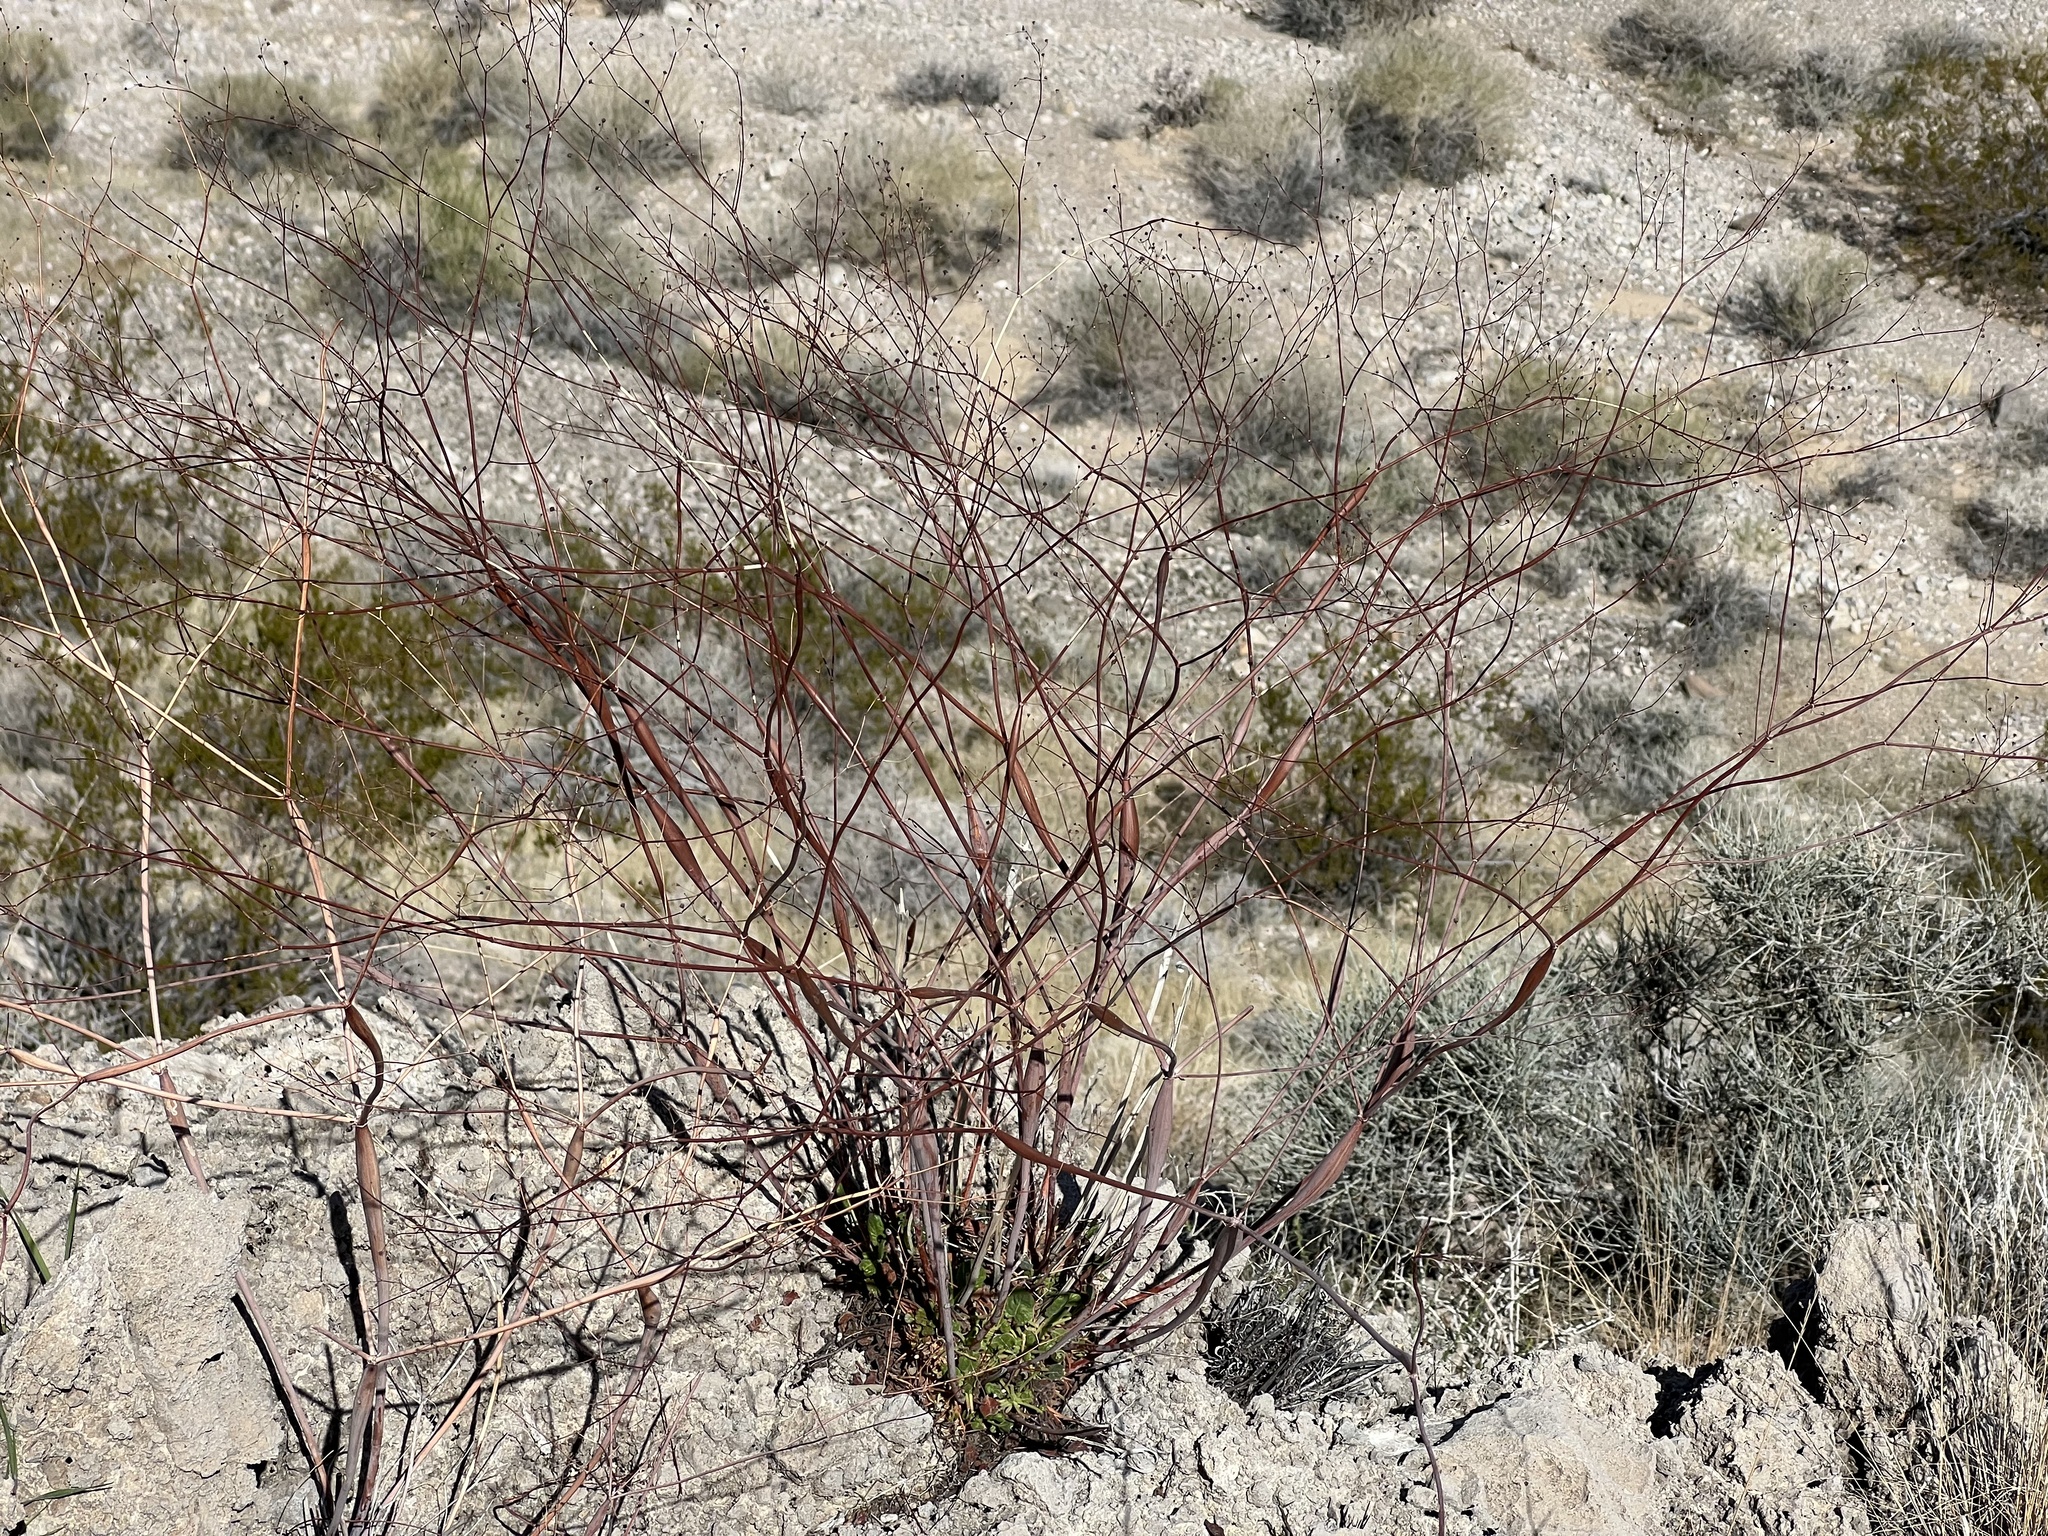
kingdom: Plantae
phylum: Tracheophyta
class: Magnoliopsida
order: Caryophyllales
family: Polygonaceae
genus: Eriogonum
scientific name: Eriogonum inflatum
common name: Desert trumpet
